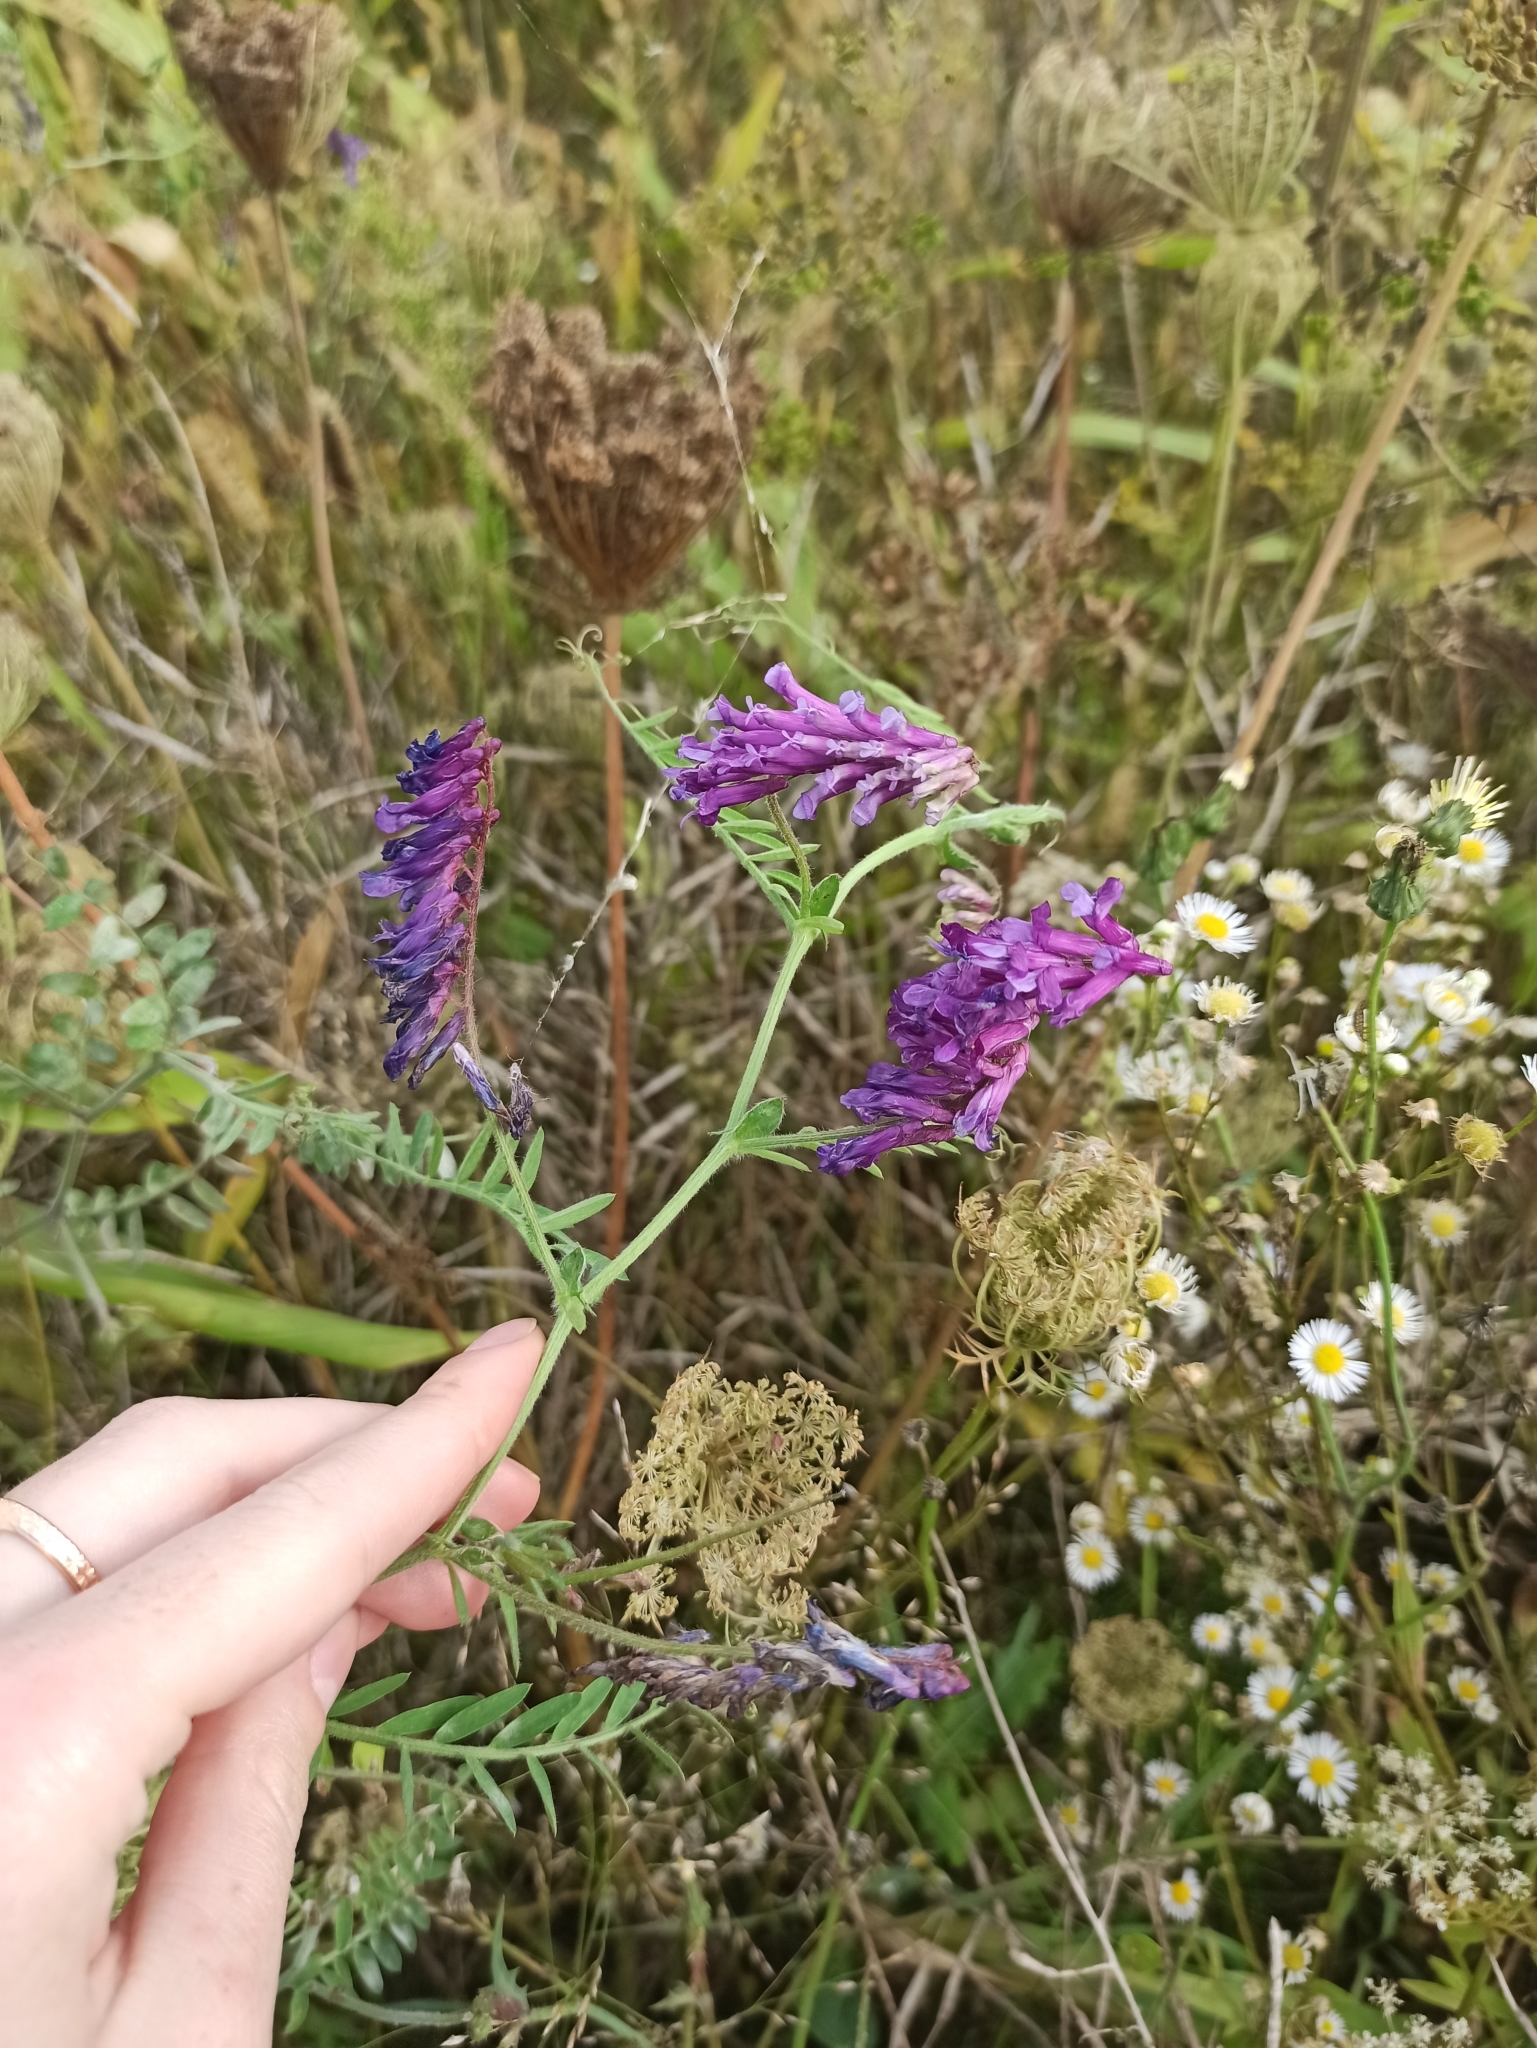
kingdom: Plantae
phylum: Tracheophyta
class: Magnoliopsida
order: Fabales
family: Fabaceae
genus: Vicia
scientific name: Vicia villosa
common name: Fodder vetch
